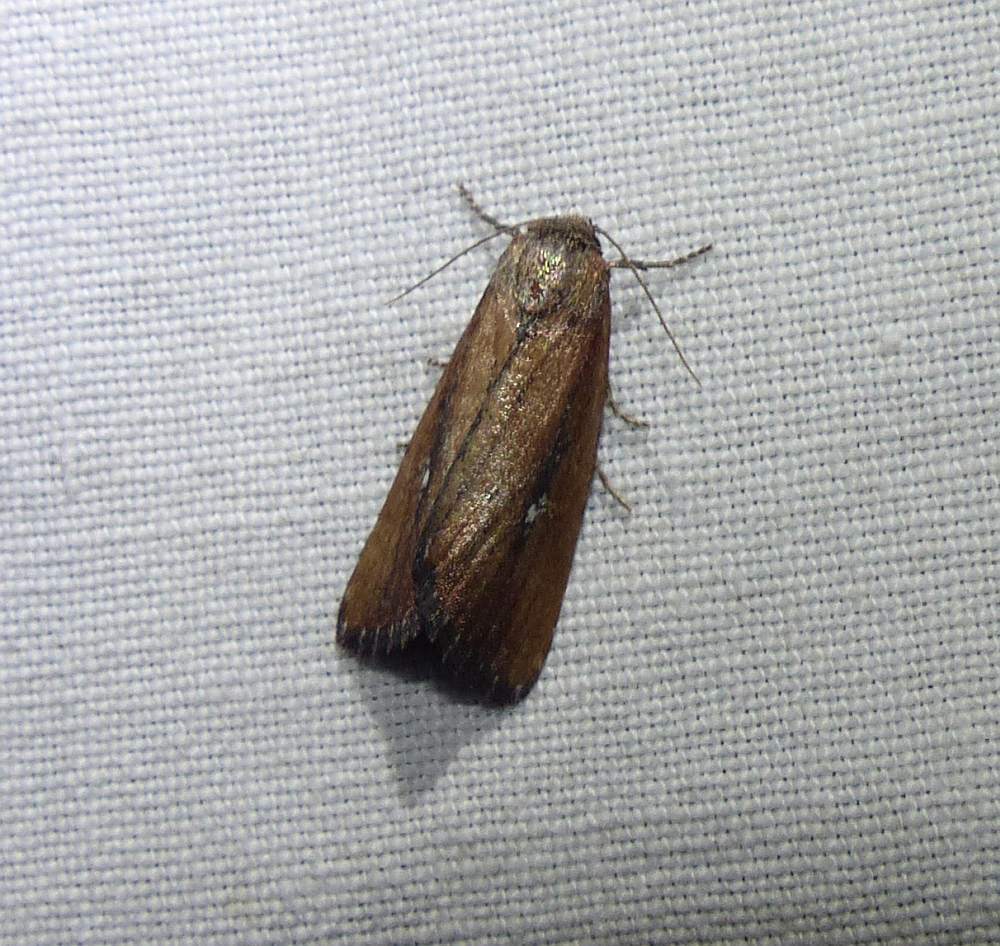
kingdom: Animalia
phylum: Arthropoda
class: Insecta
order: Lepidoptera
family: Noctuidae
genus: Condica
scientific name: Condica videns
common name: White-dotted groundling
